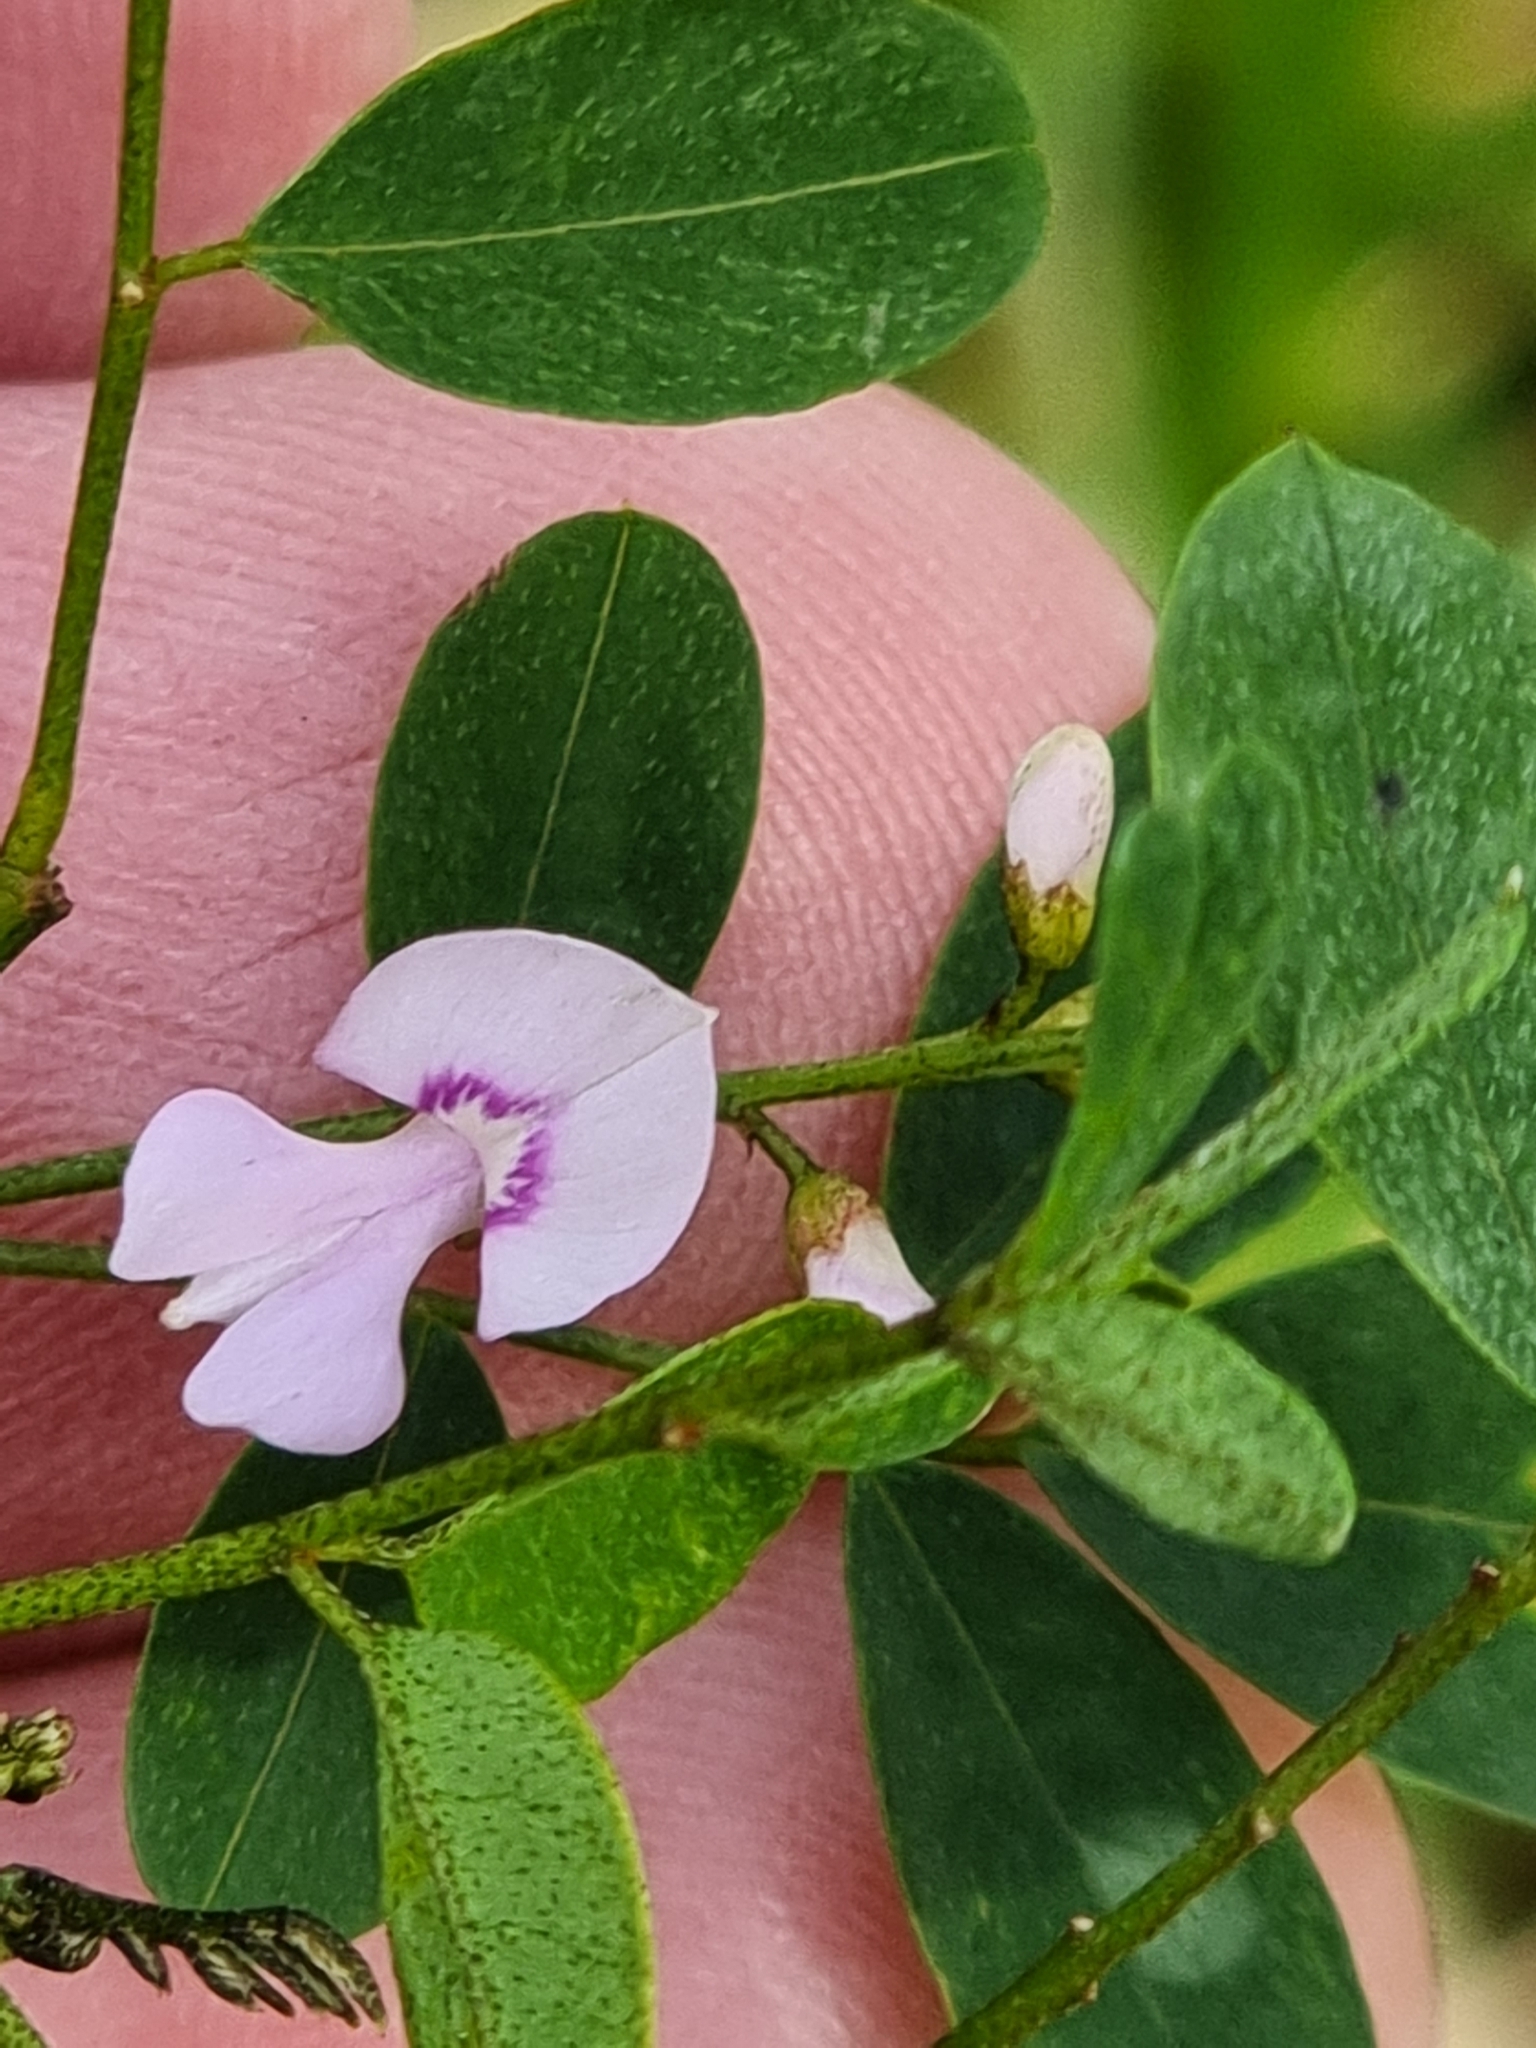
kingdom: Plantae
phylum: Tracheophyta
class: Magnoliopsida
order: Fabales
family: Fabaceae
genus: Indigofera
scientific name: Indigofera australis
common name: Australian indigo
